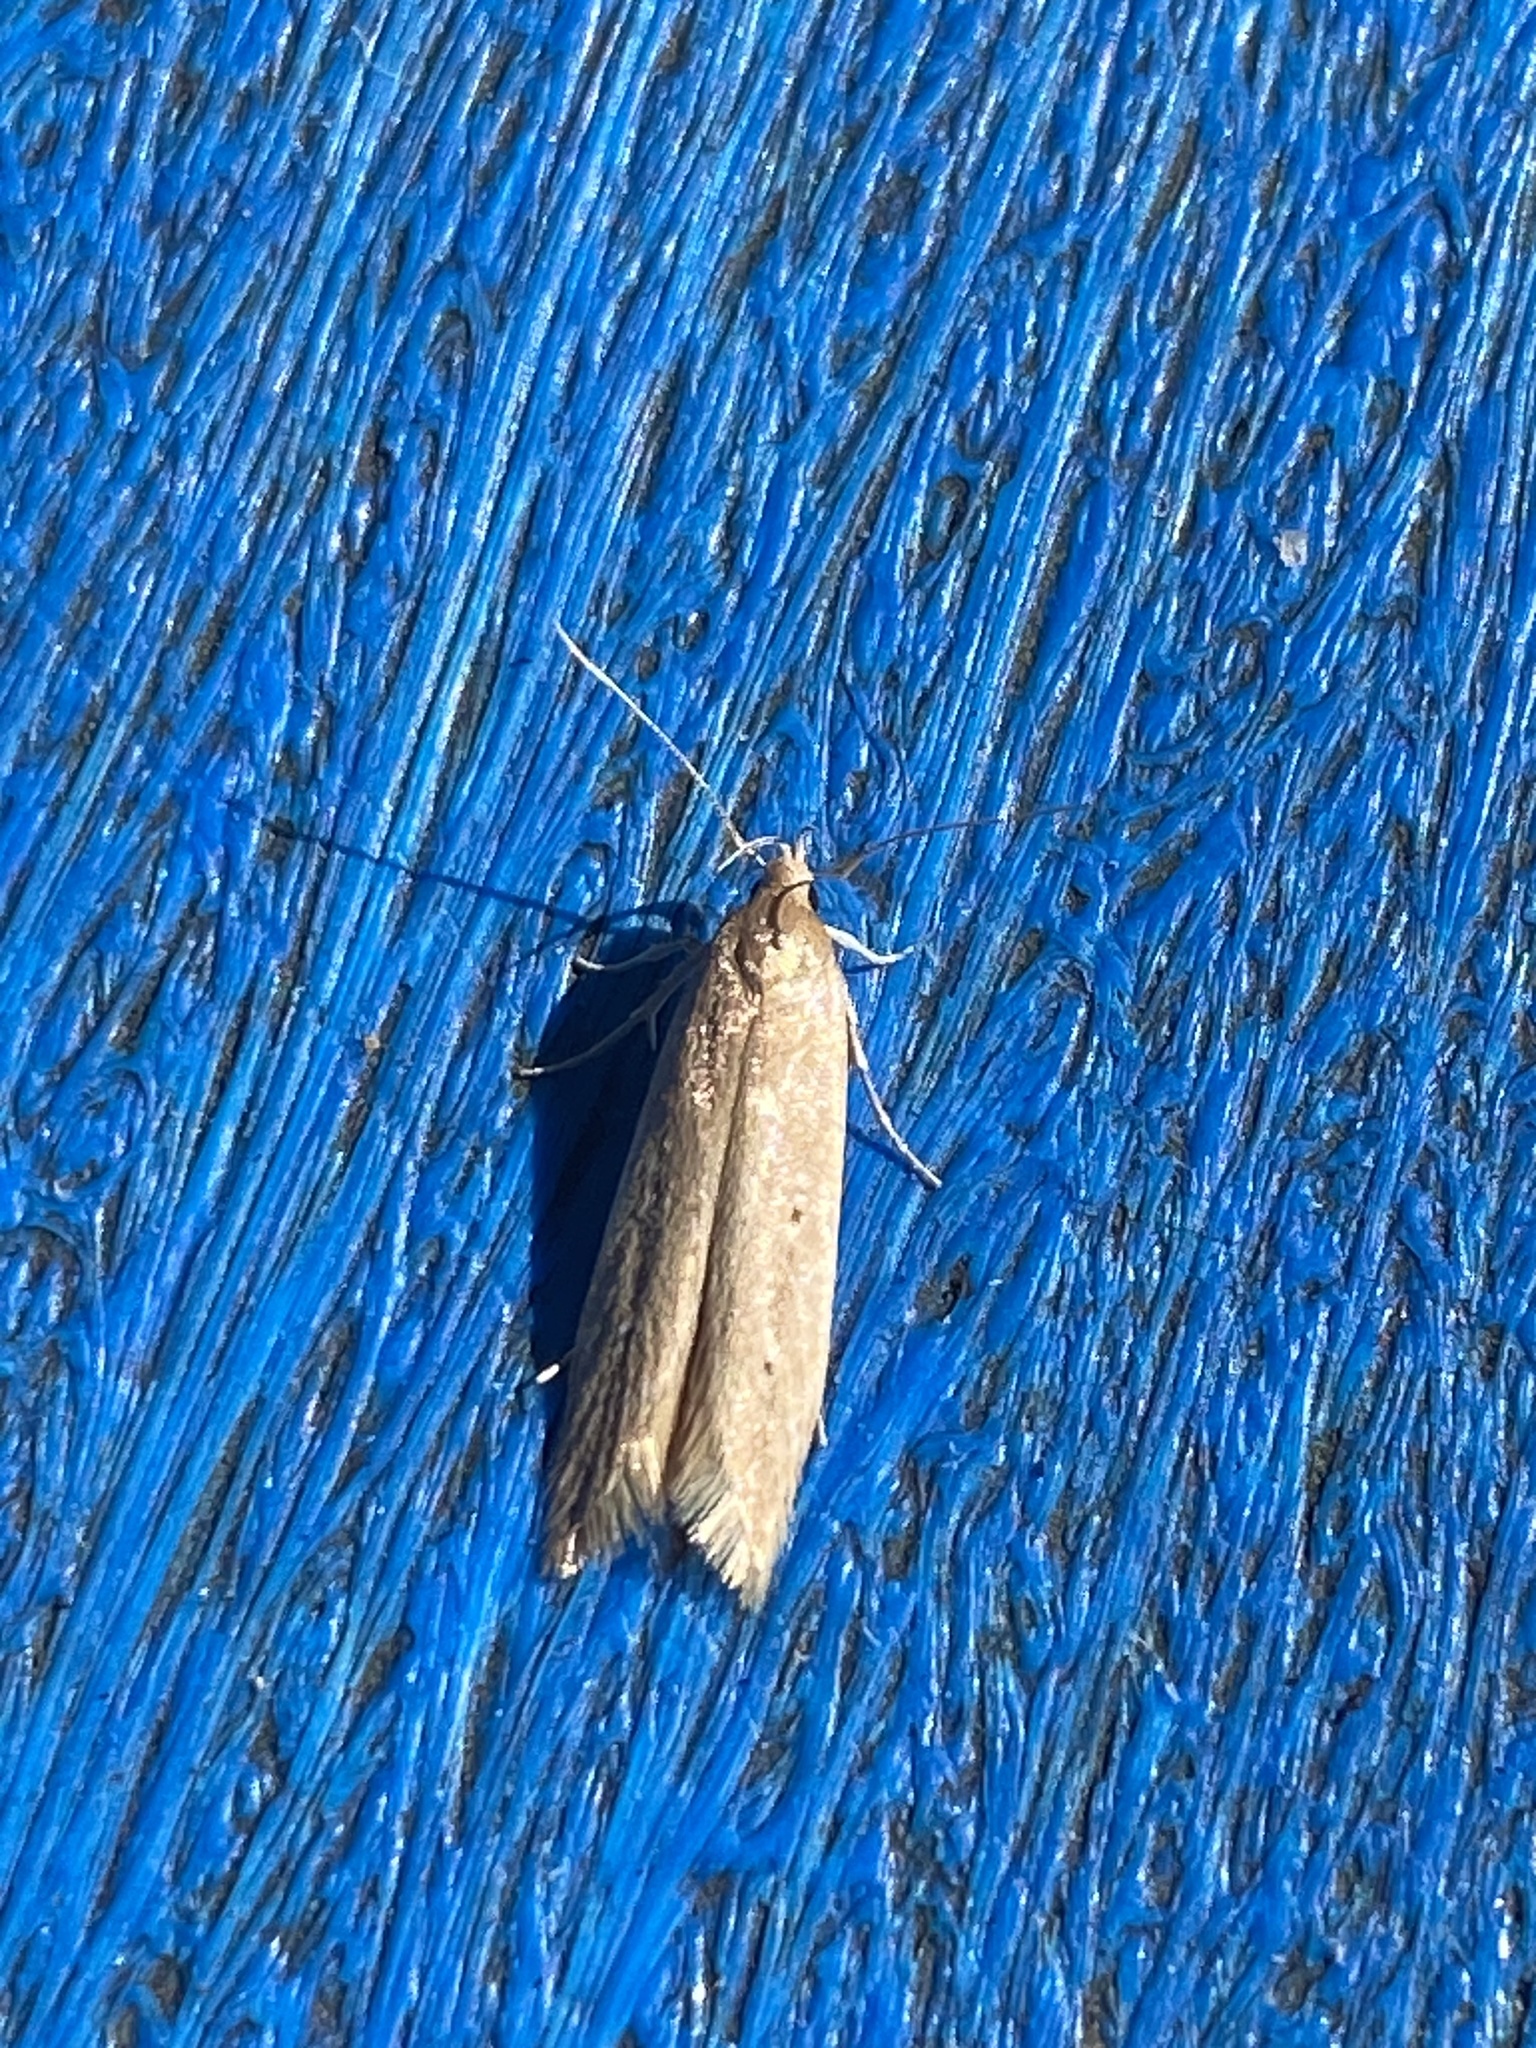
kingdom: Animalia
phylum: Arthropoda
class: Insecta
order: Lepidoptera
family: Cosmopterigidae
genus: Limnaecia
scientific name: Limnaecia phragmitella
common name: Bulrush cosmet
